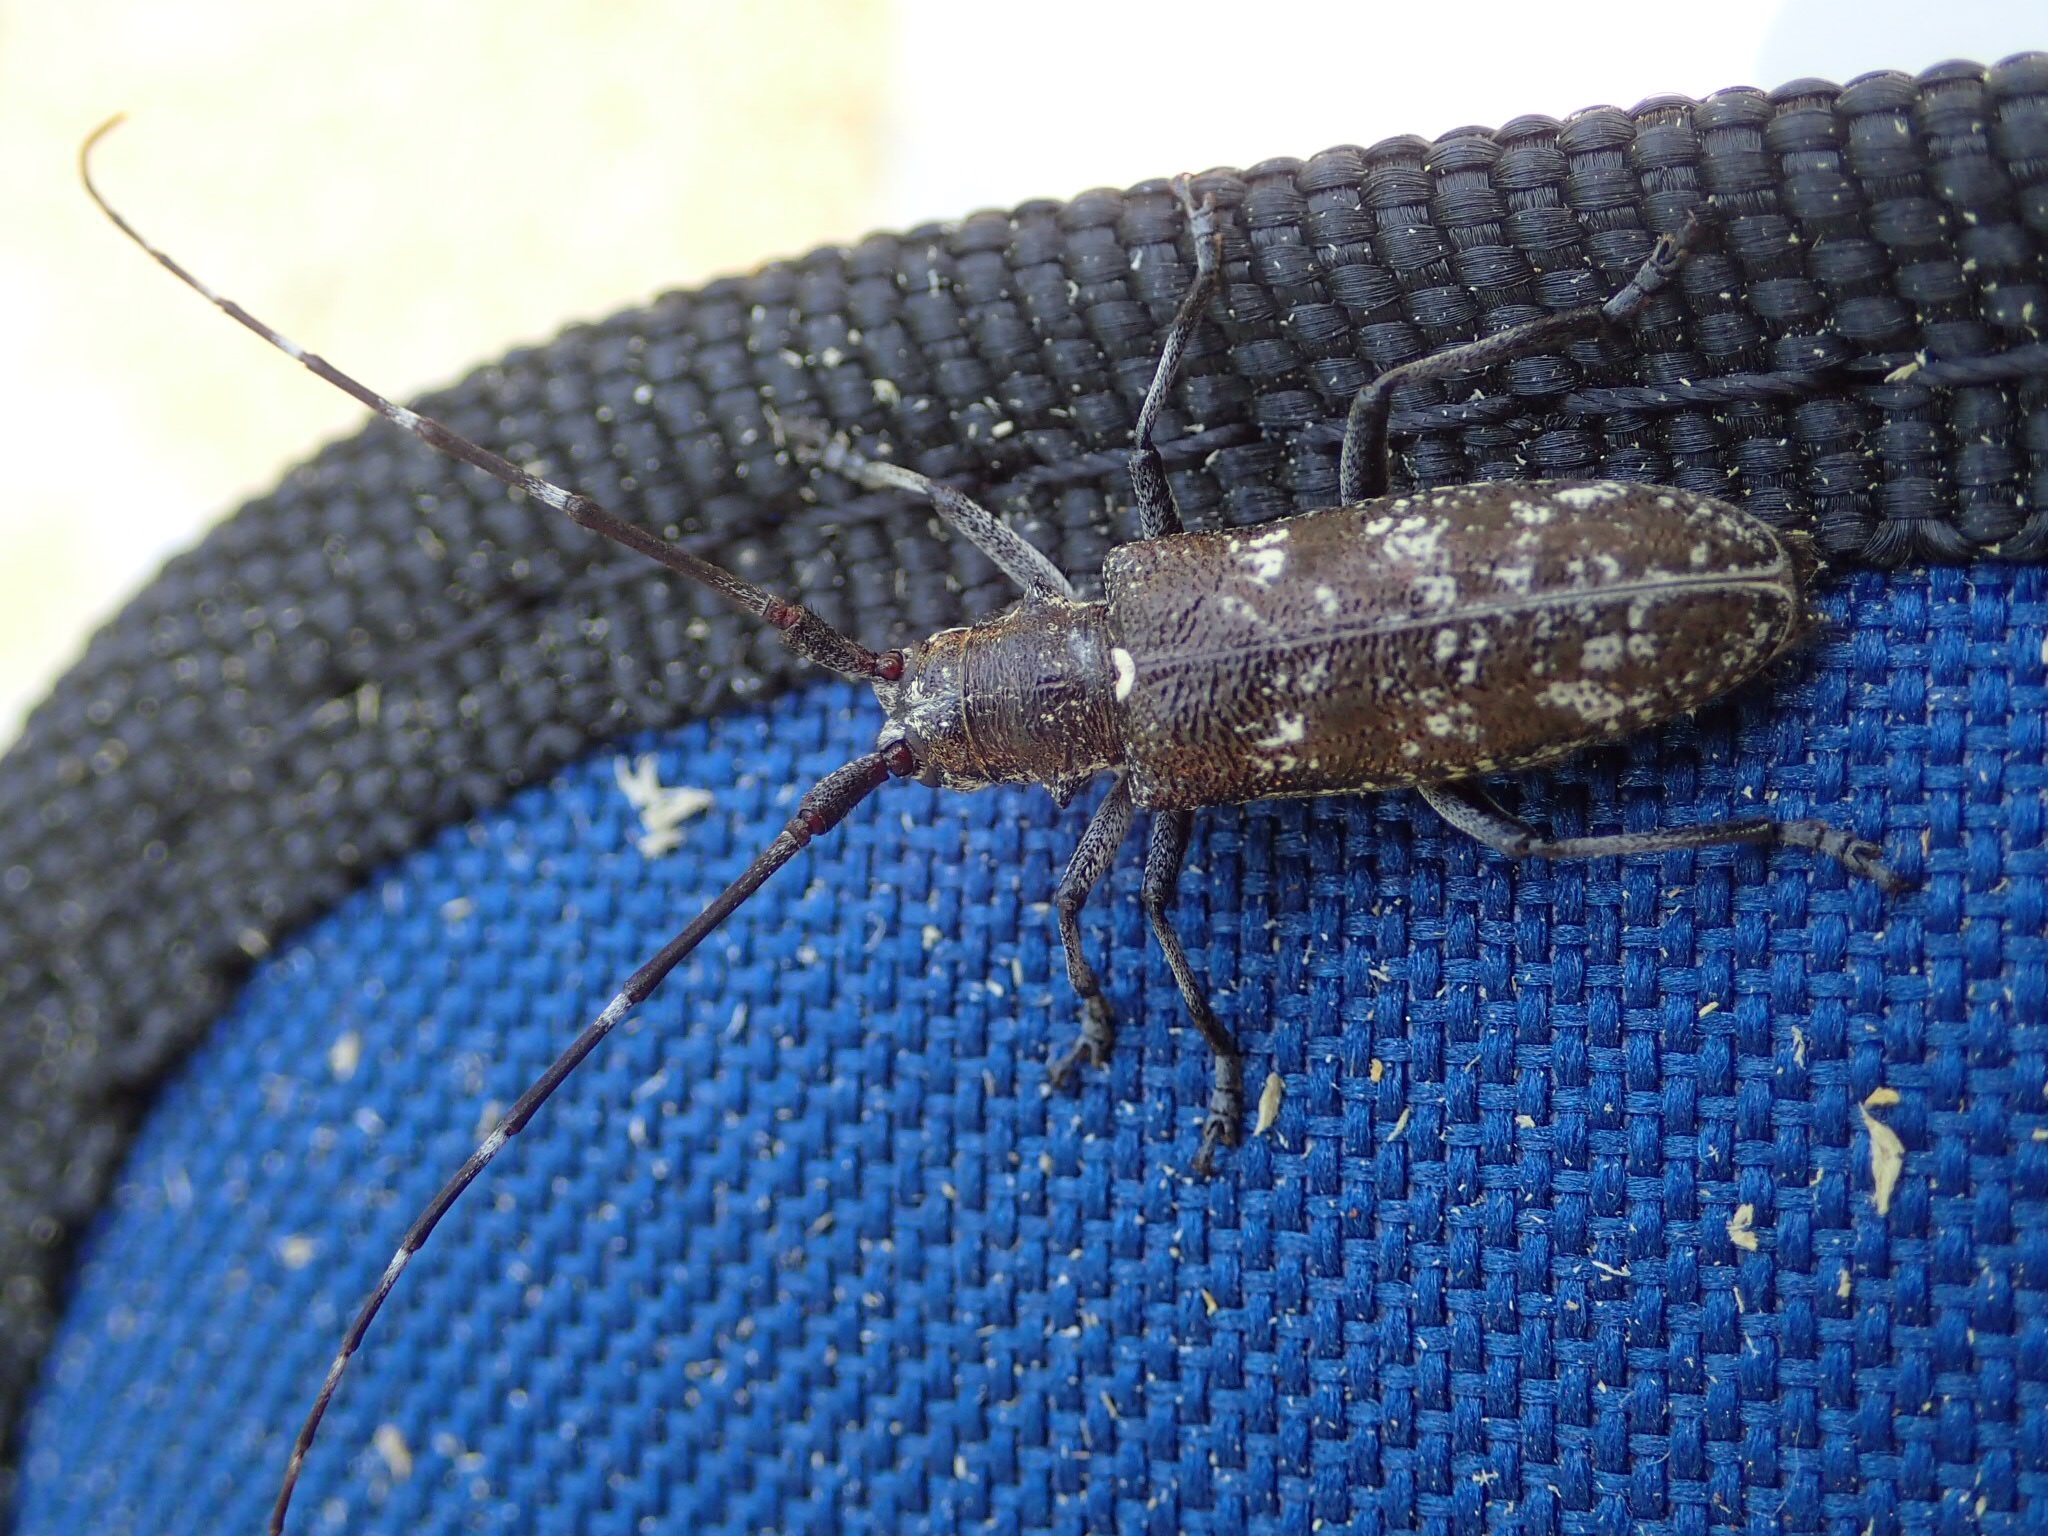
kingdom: Animalia
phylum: Arthropoda
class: Insecta
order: Coleoptera
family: Cerambycidae
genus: Monochamus
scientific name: Monochamus scutellatus
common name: White-spotted sawyer beetle
